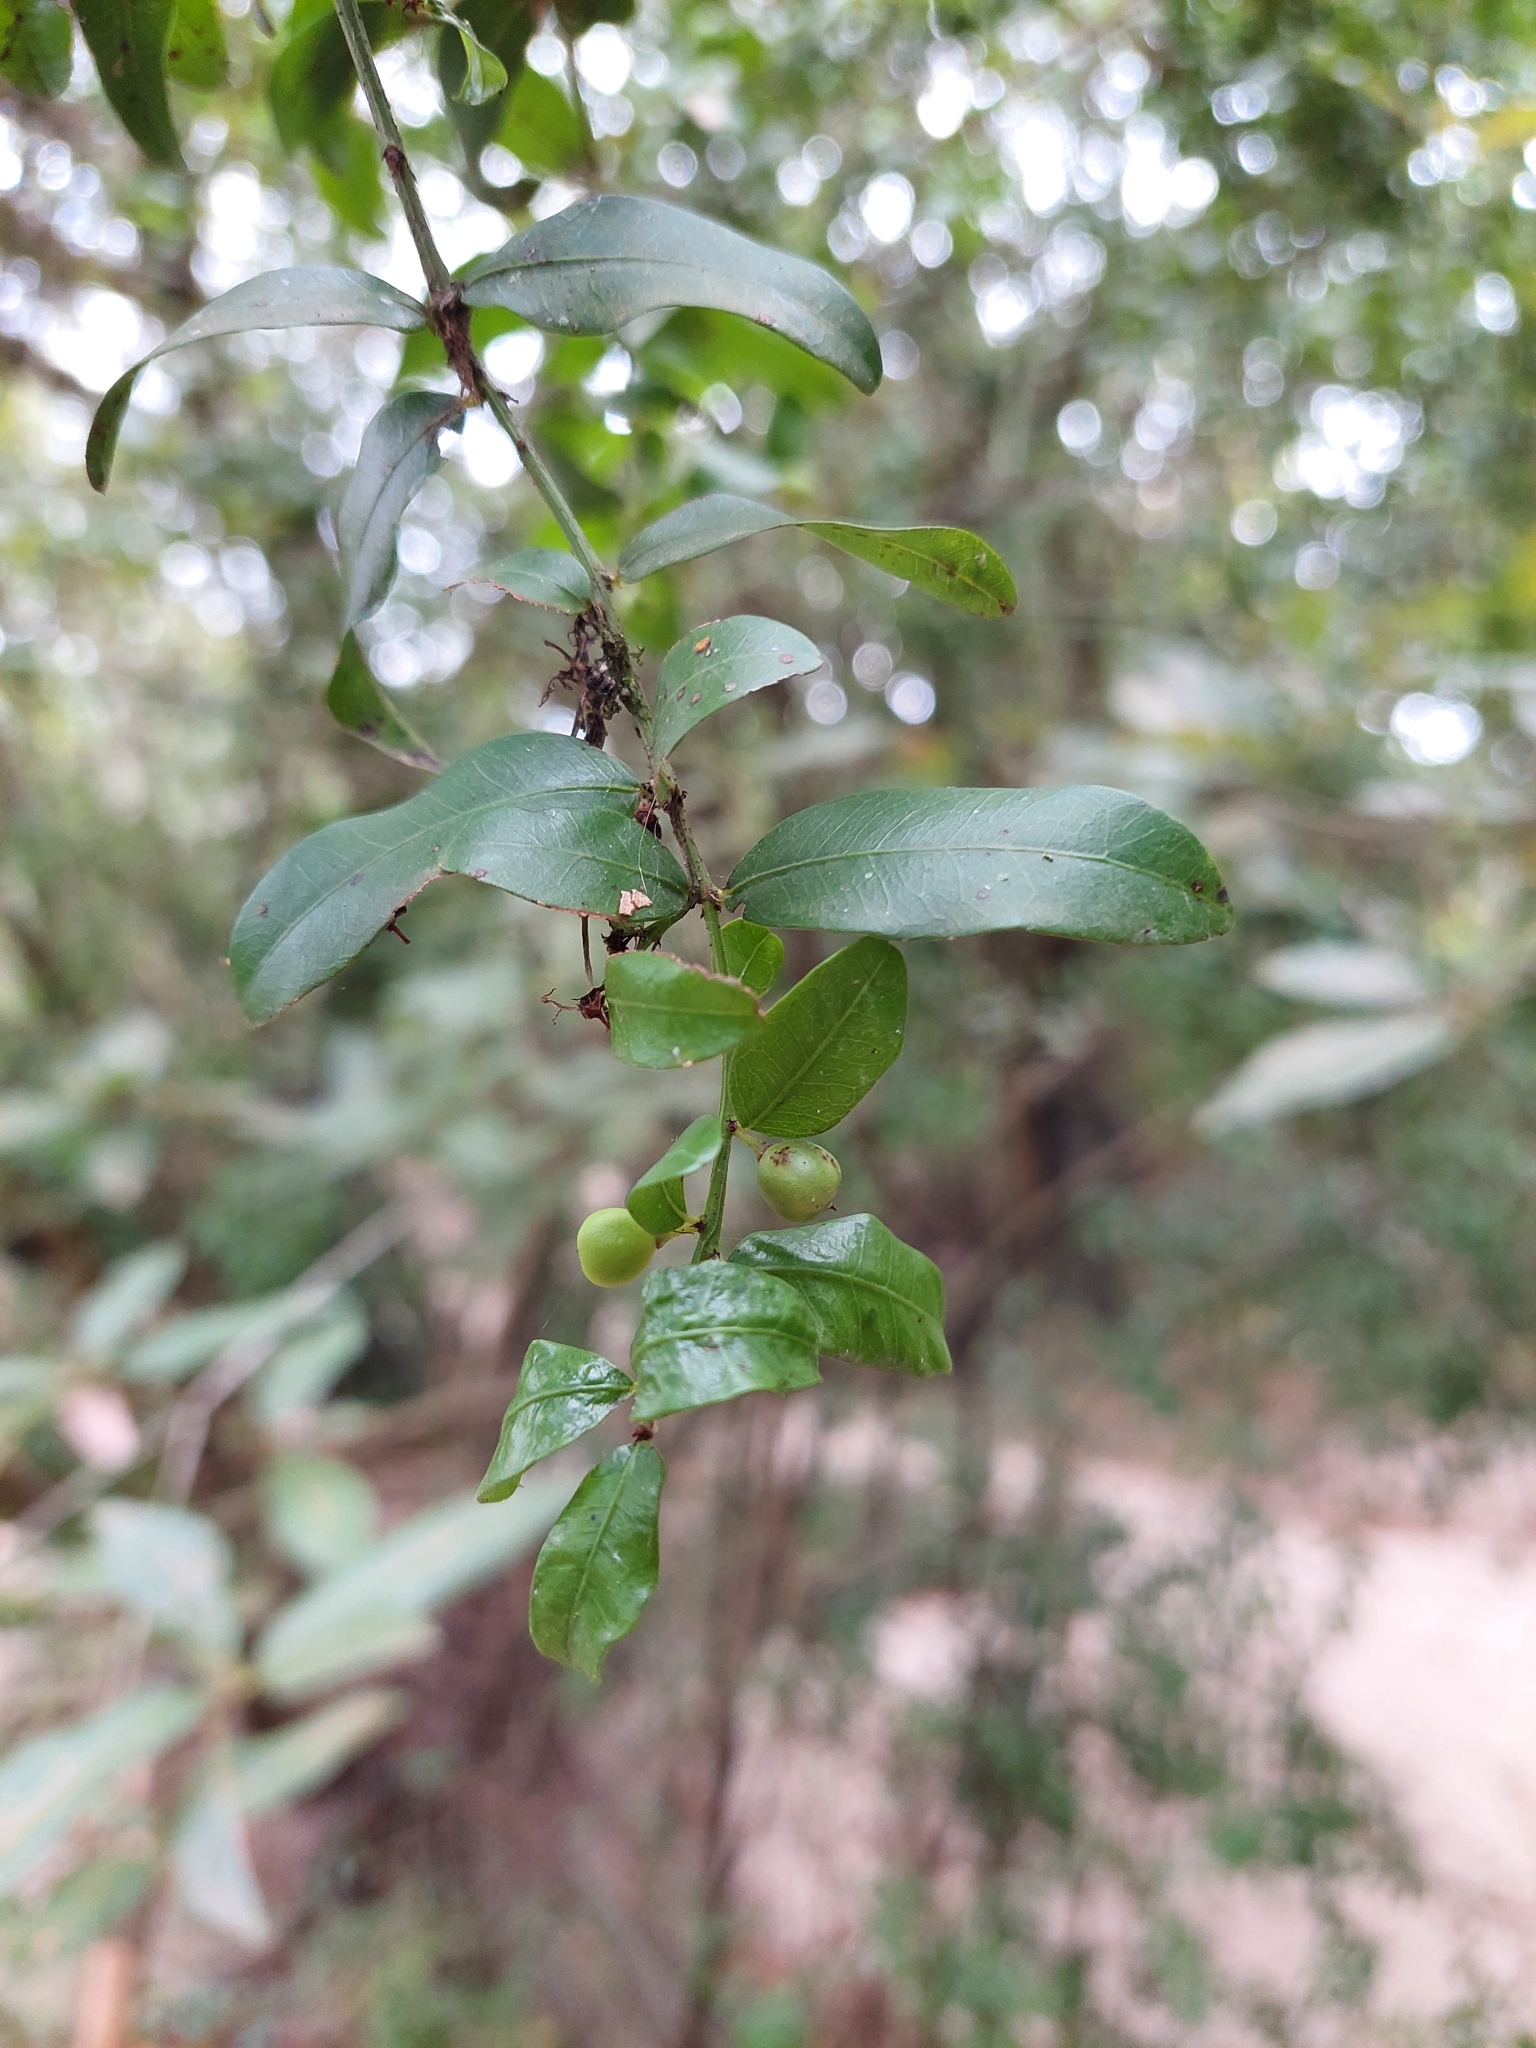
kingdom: Plantae
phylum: Tracheophyta
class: Magnoliopsida
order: Rosales
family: Rhamnaceae
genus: Scutia
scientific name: Scutia buxifolia
